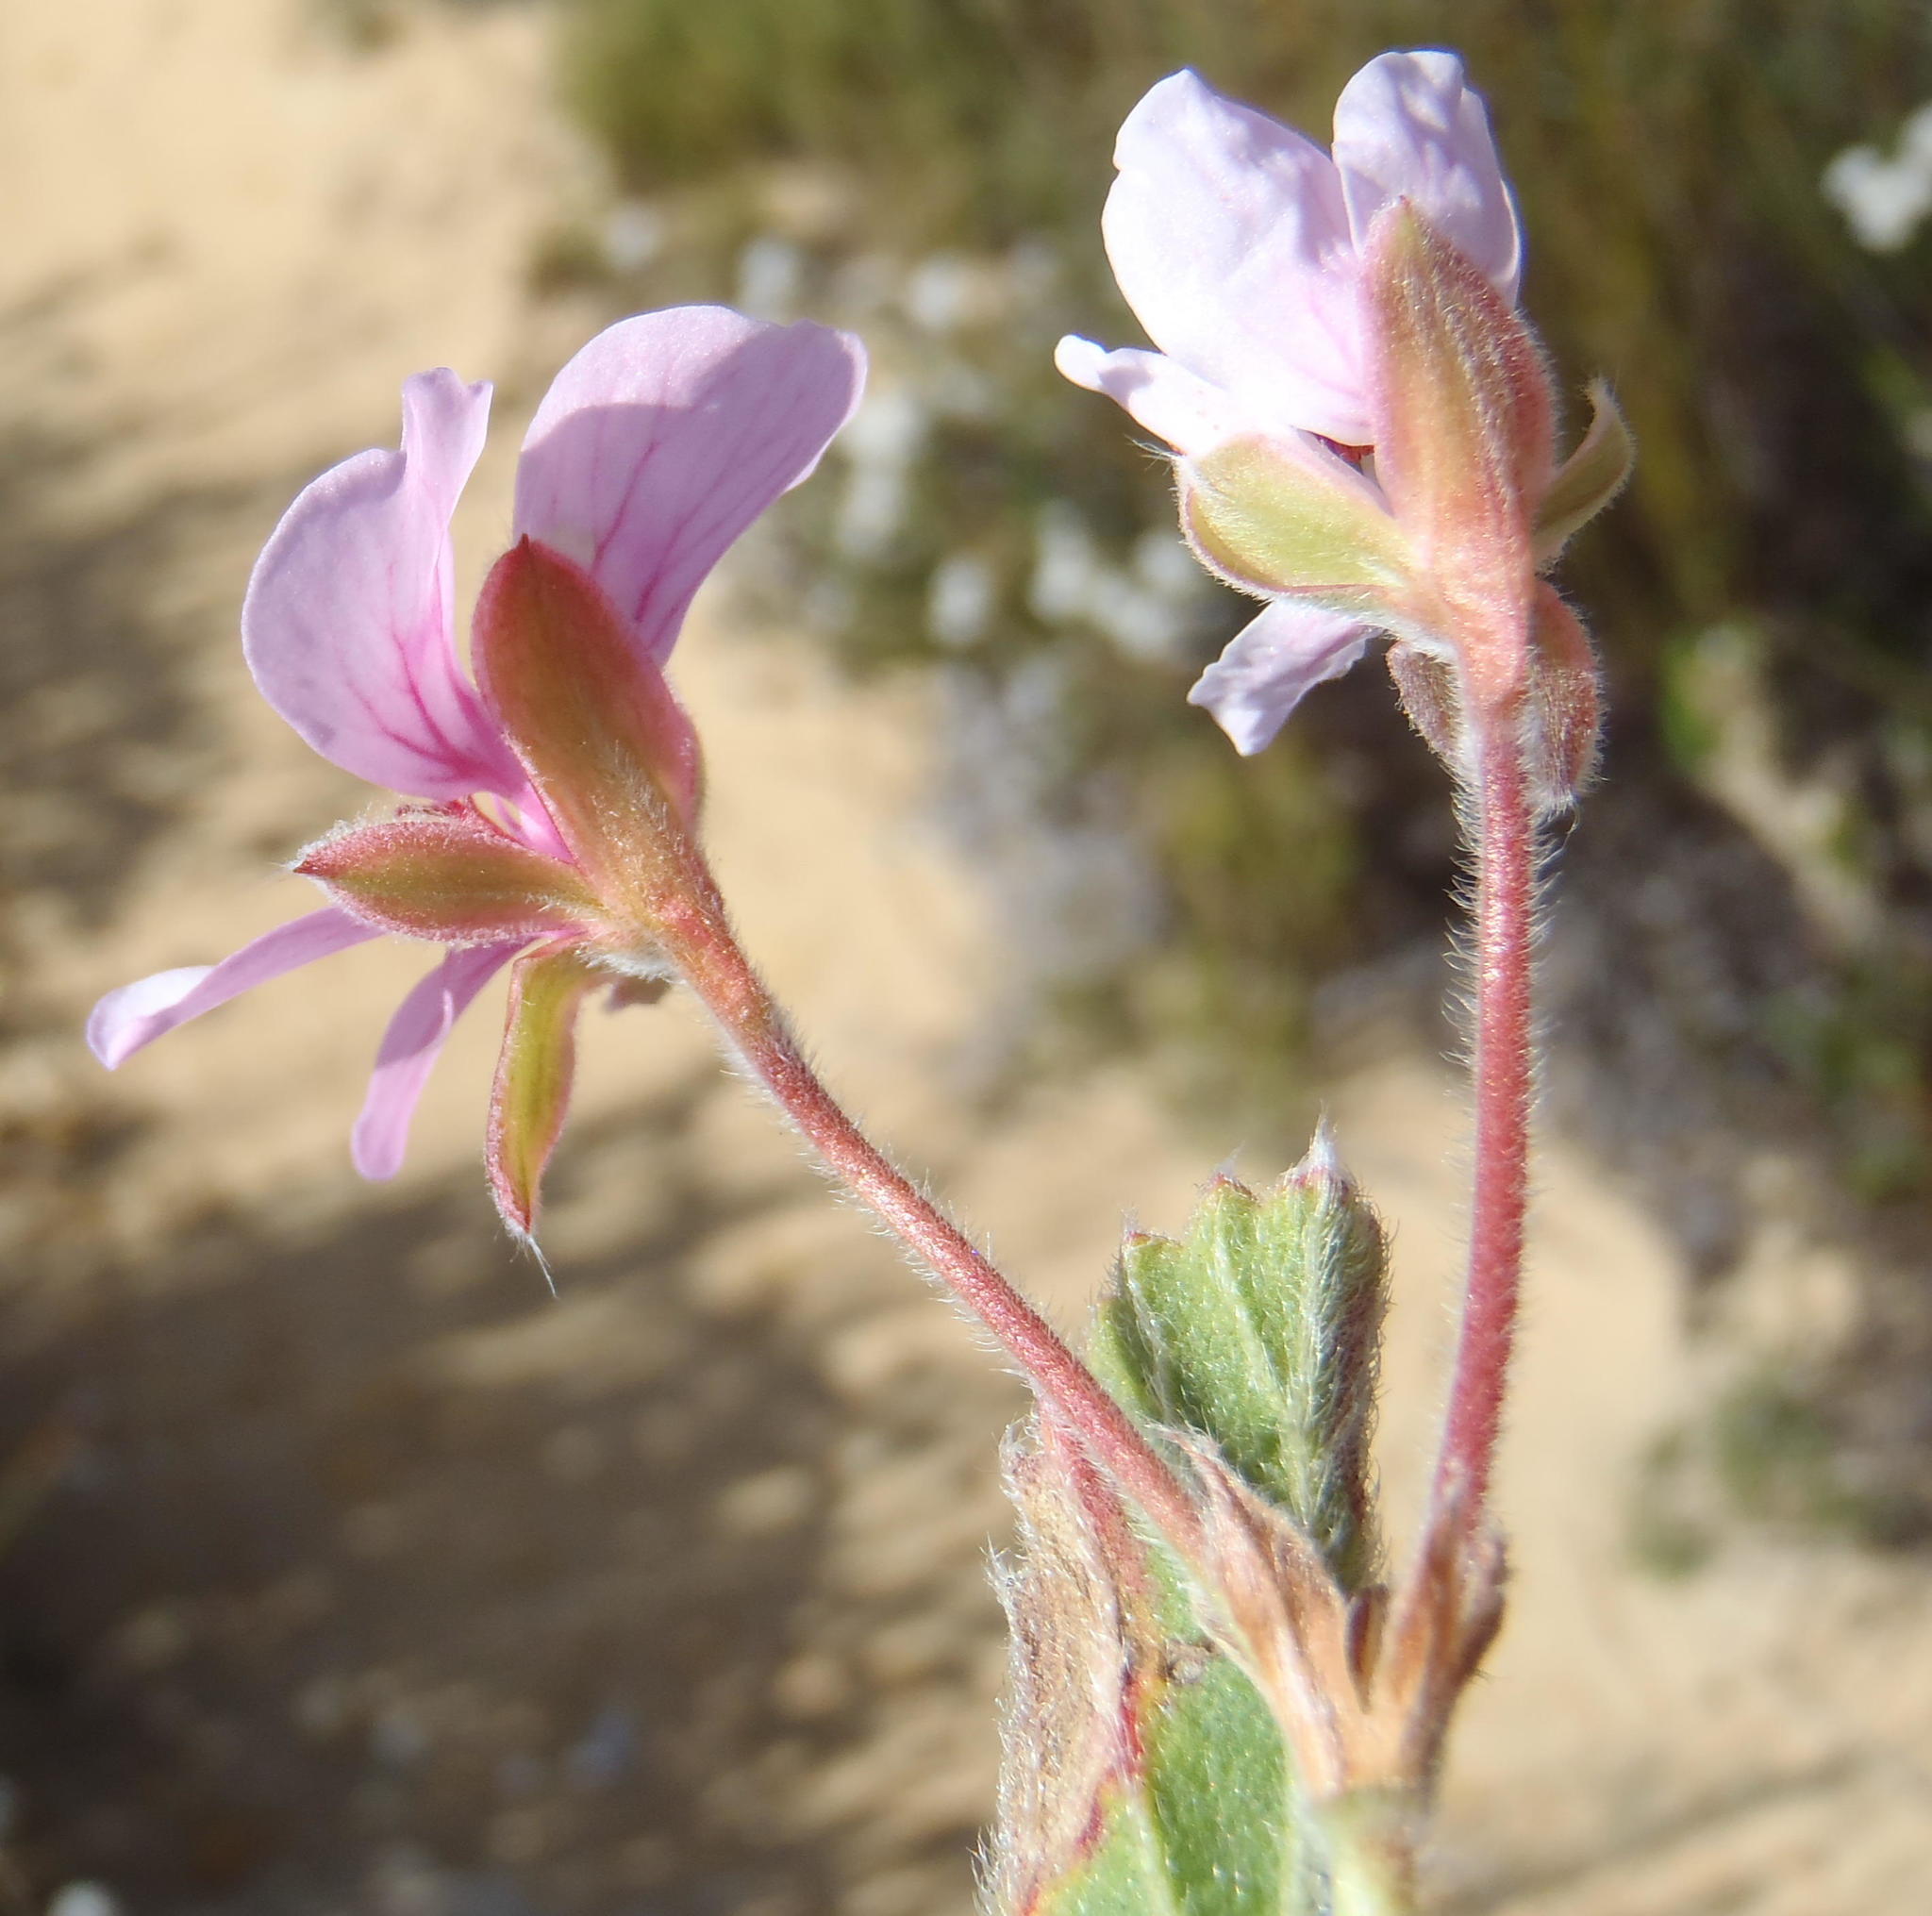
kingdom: Plantae
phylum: Tracheophyta
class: Magnoliopsida
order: Geraniales
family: Geraniaceae
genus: Pelargonium
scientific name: Pelargonium ovale
